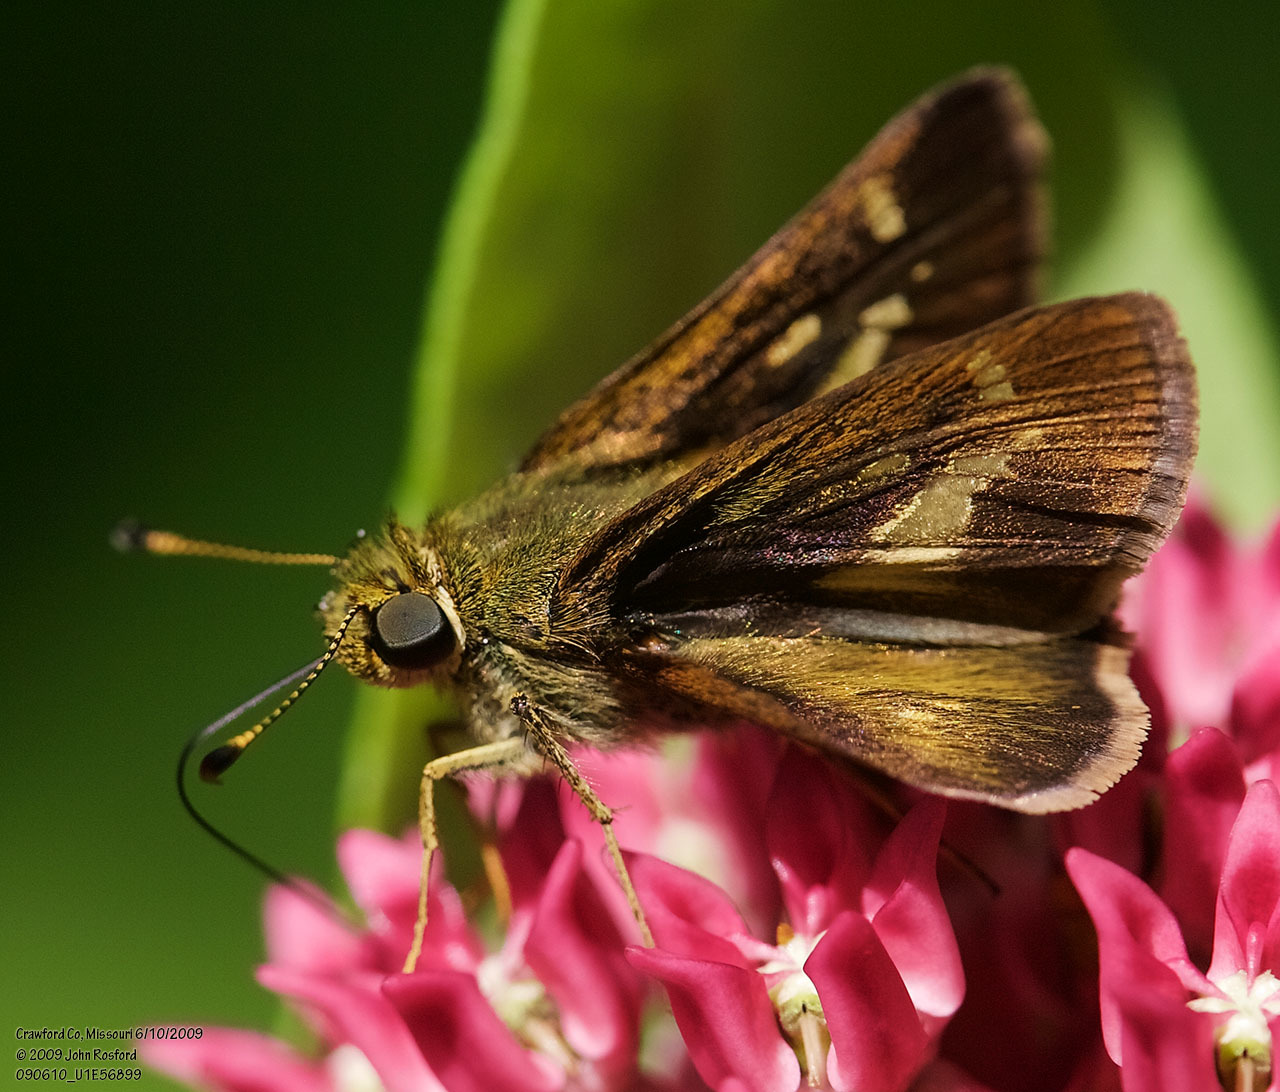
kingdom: Animalia
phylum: Arthropoda
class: Insecta
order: Lepidoptera
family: Hesperiidae
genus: Vernia
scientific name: Vernia verna
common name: Little glassywing
